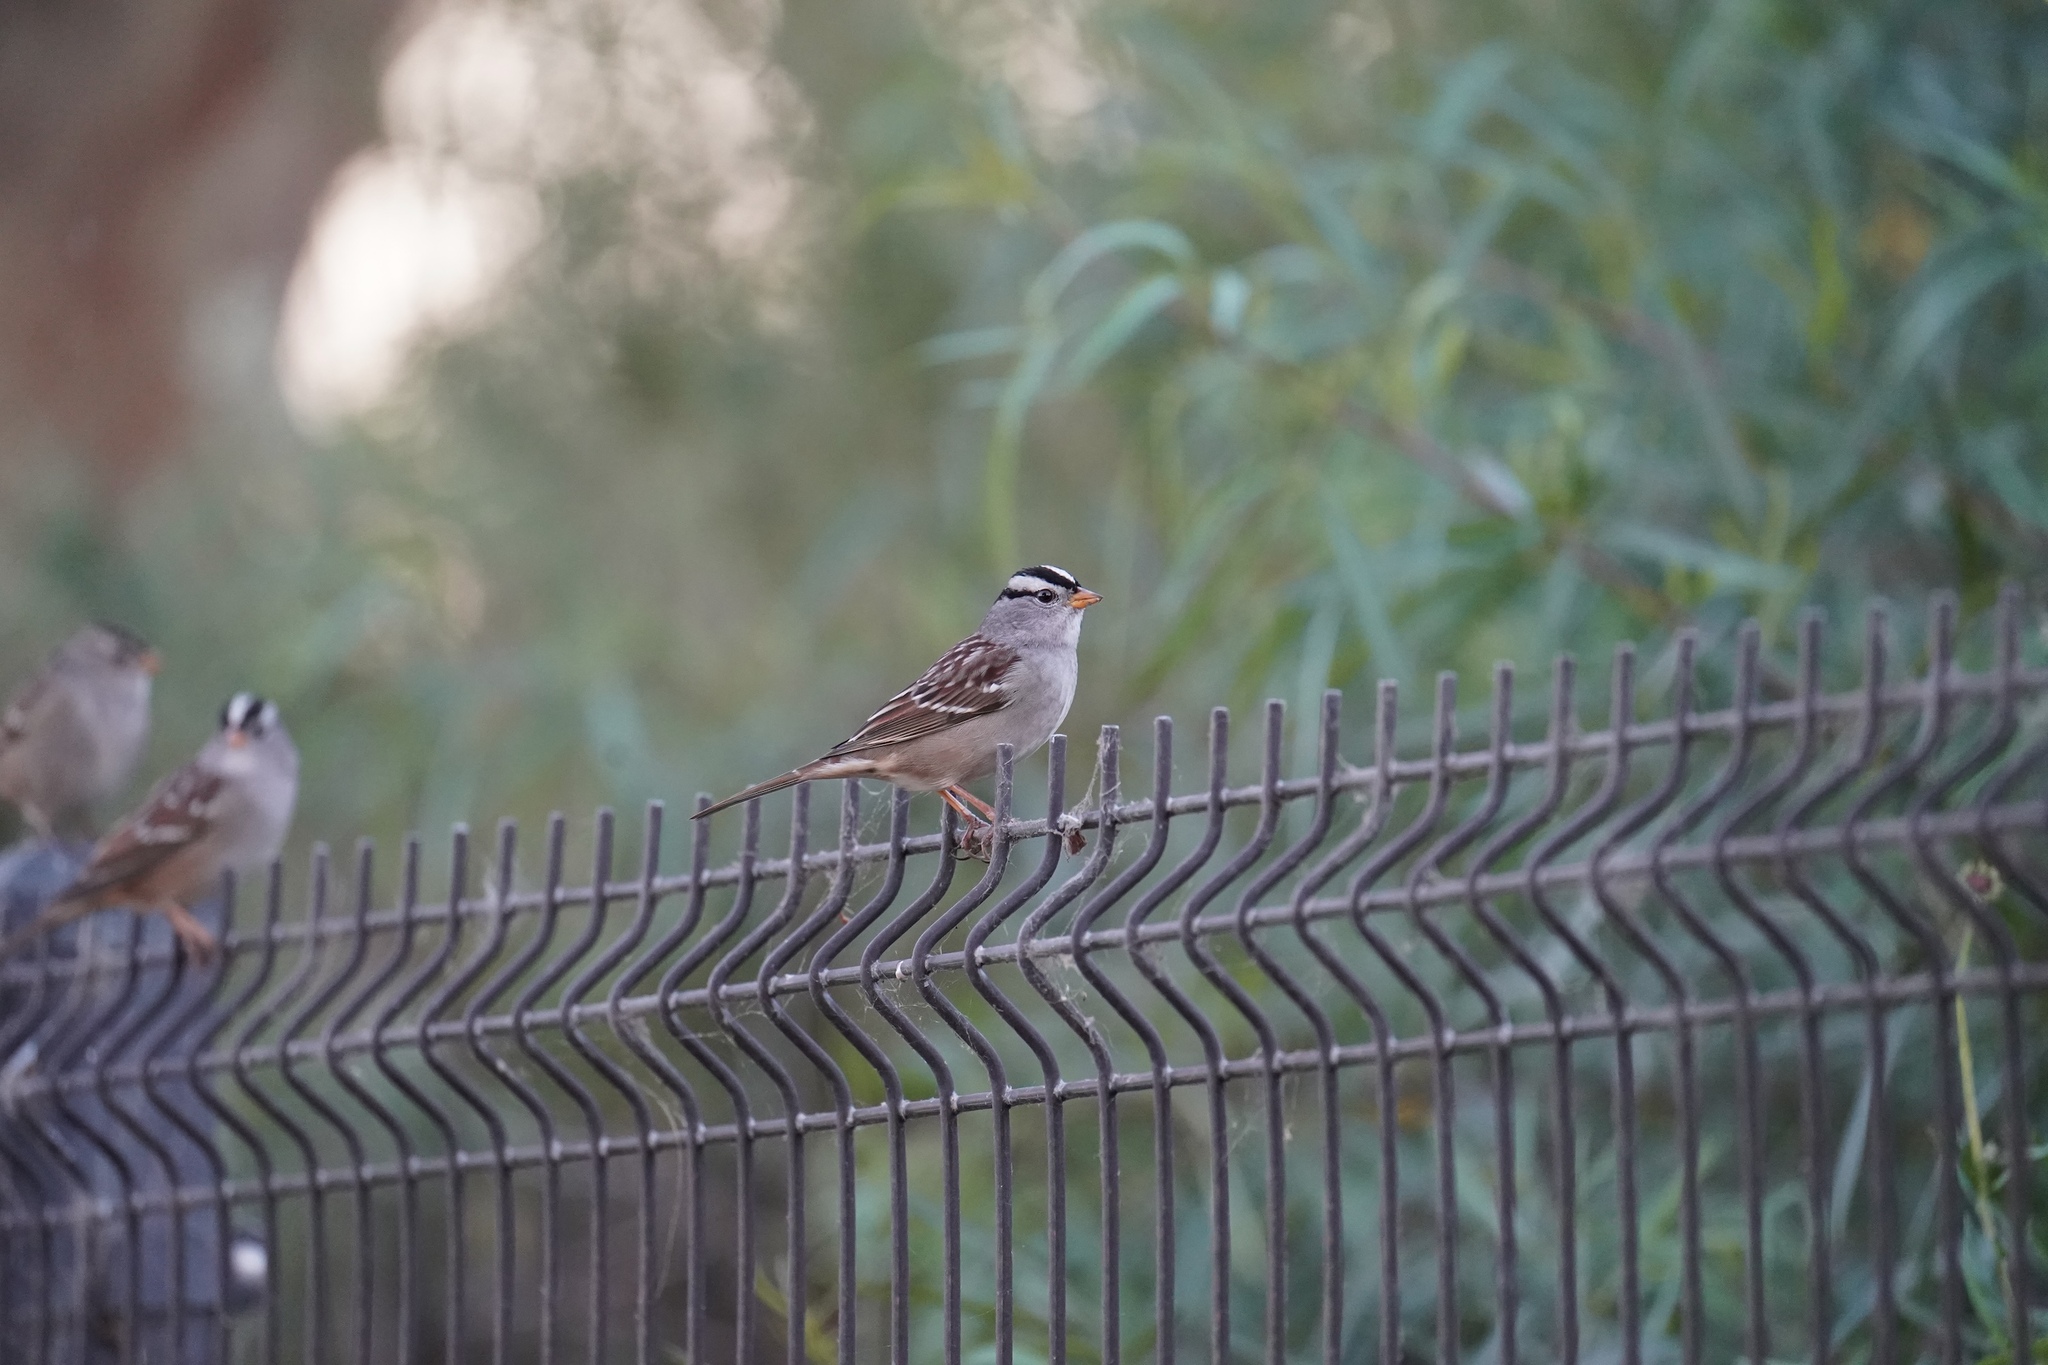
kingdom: Animalia
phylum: Chordata
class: Aves
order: Passeriformes
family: Passerellidae
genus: Zonotrichia
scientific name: Zonotrichia leucophrys
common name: White-crowned sparrow
